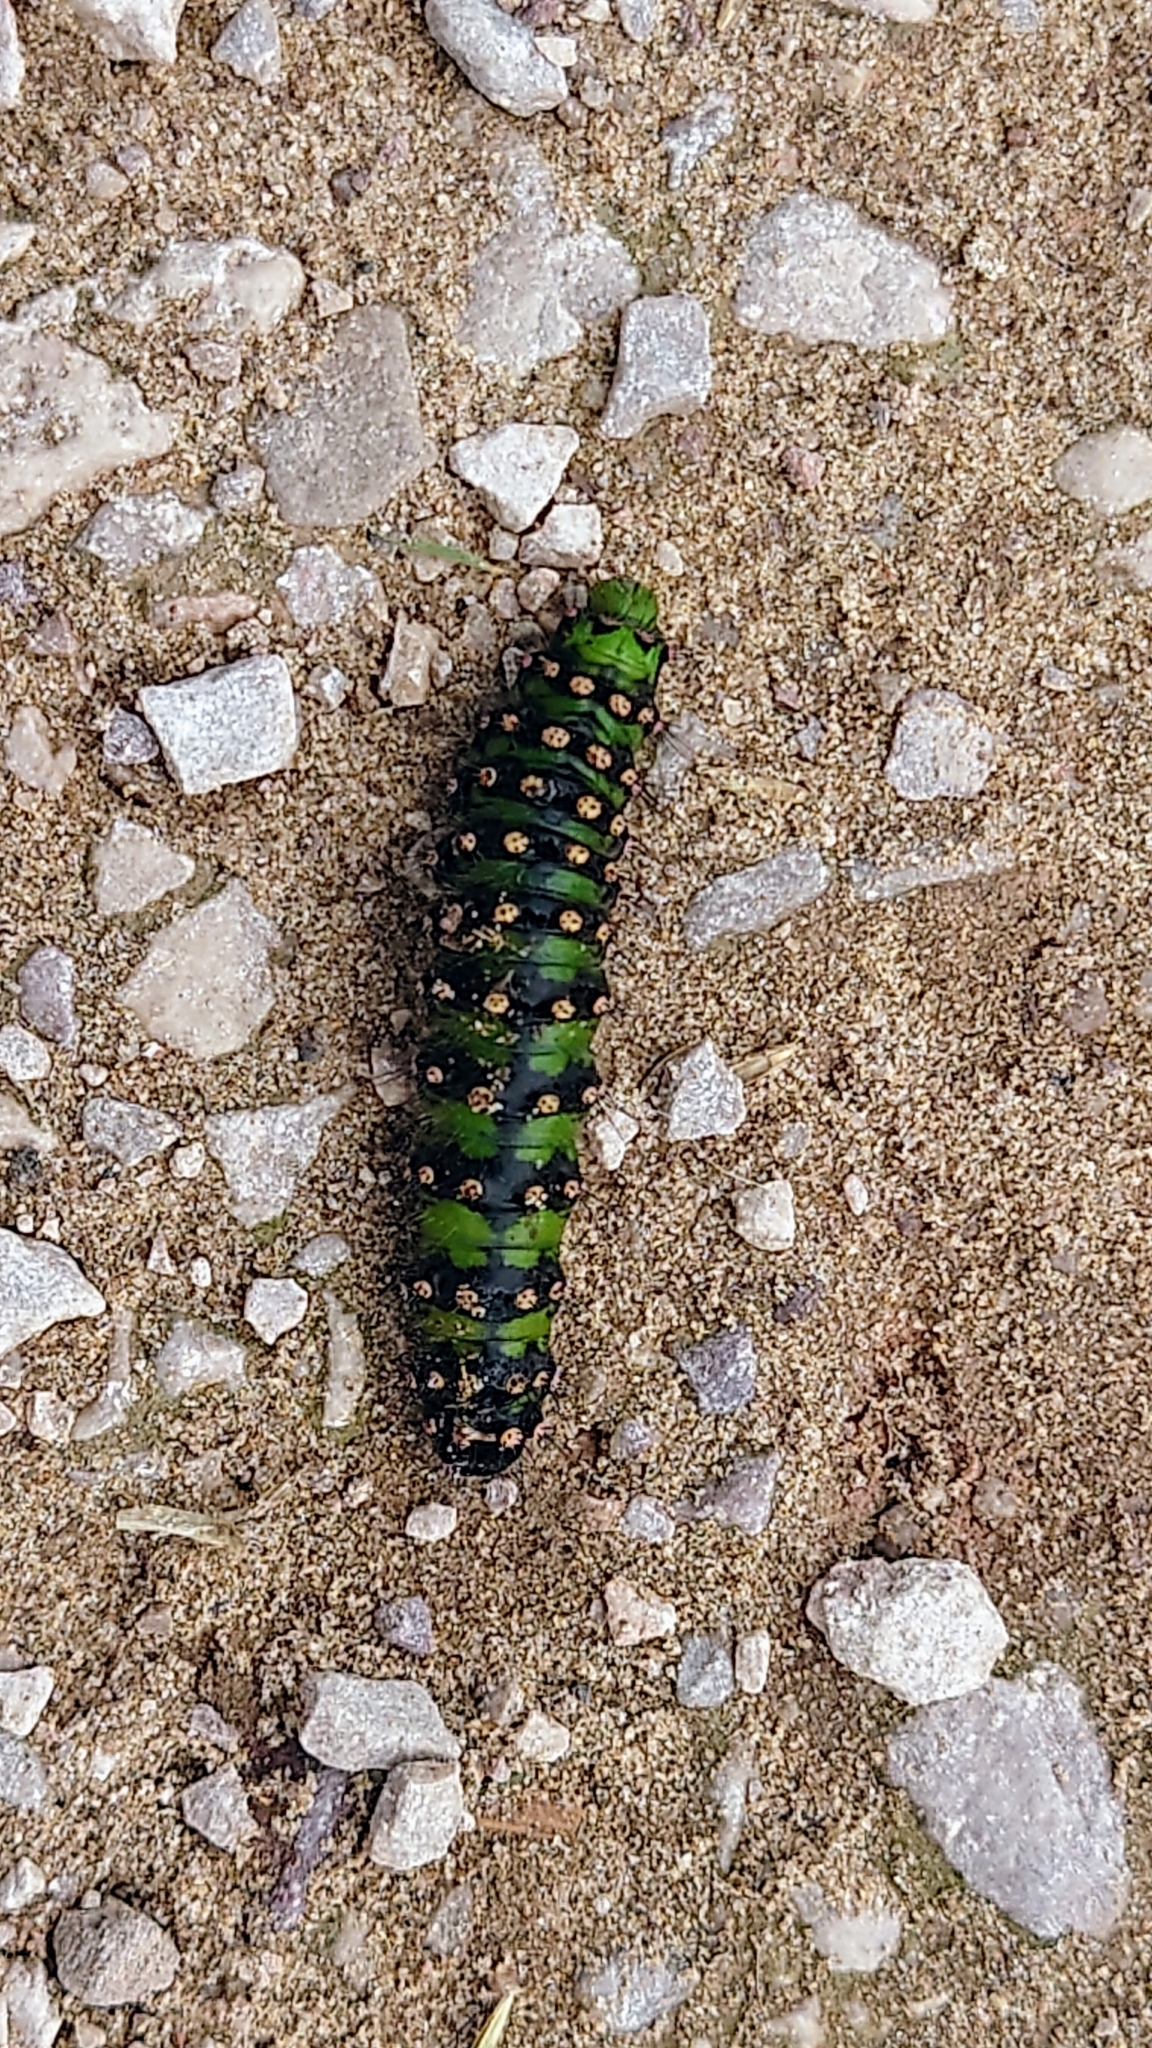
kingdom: Animalia
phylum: Arthropoda
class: Insecta
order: Lepidoptera
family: Saturniidae
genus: Saturnia
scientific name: Saturnia pavonia
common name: Emperor moth
